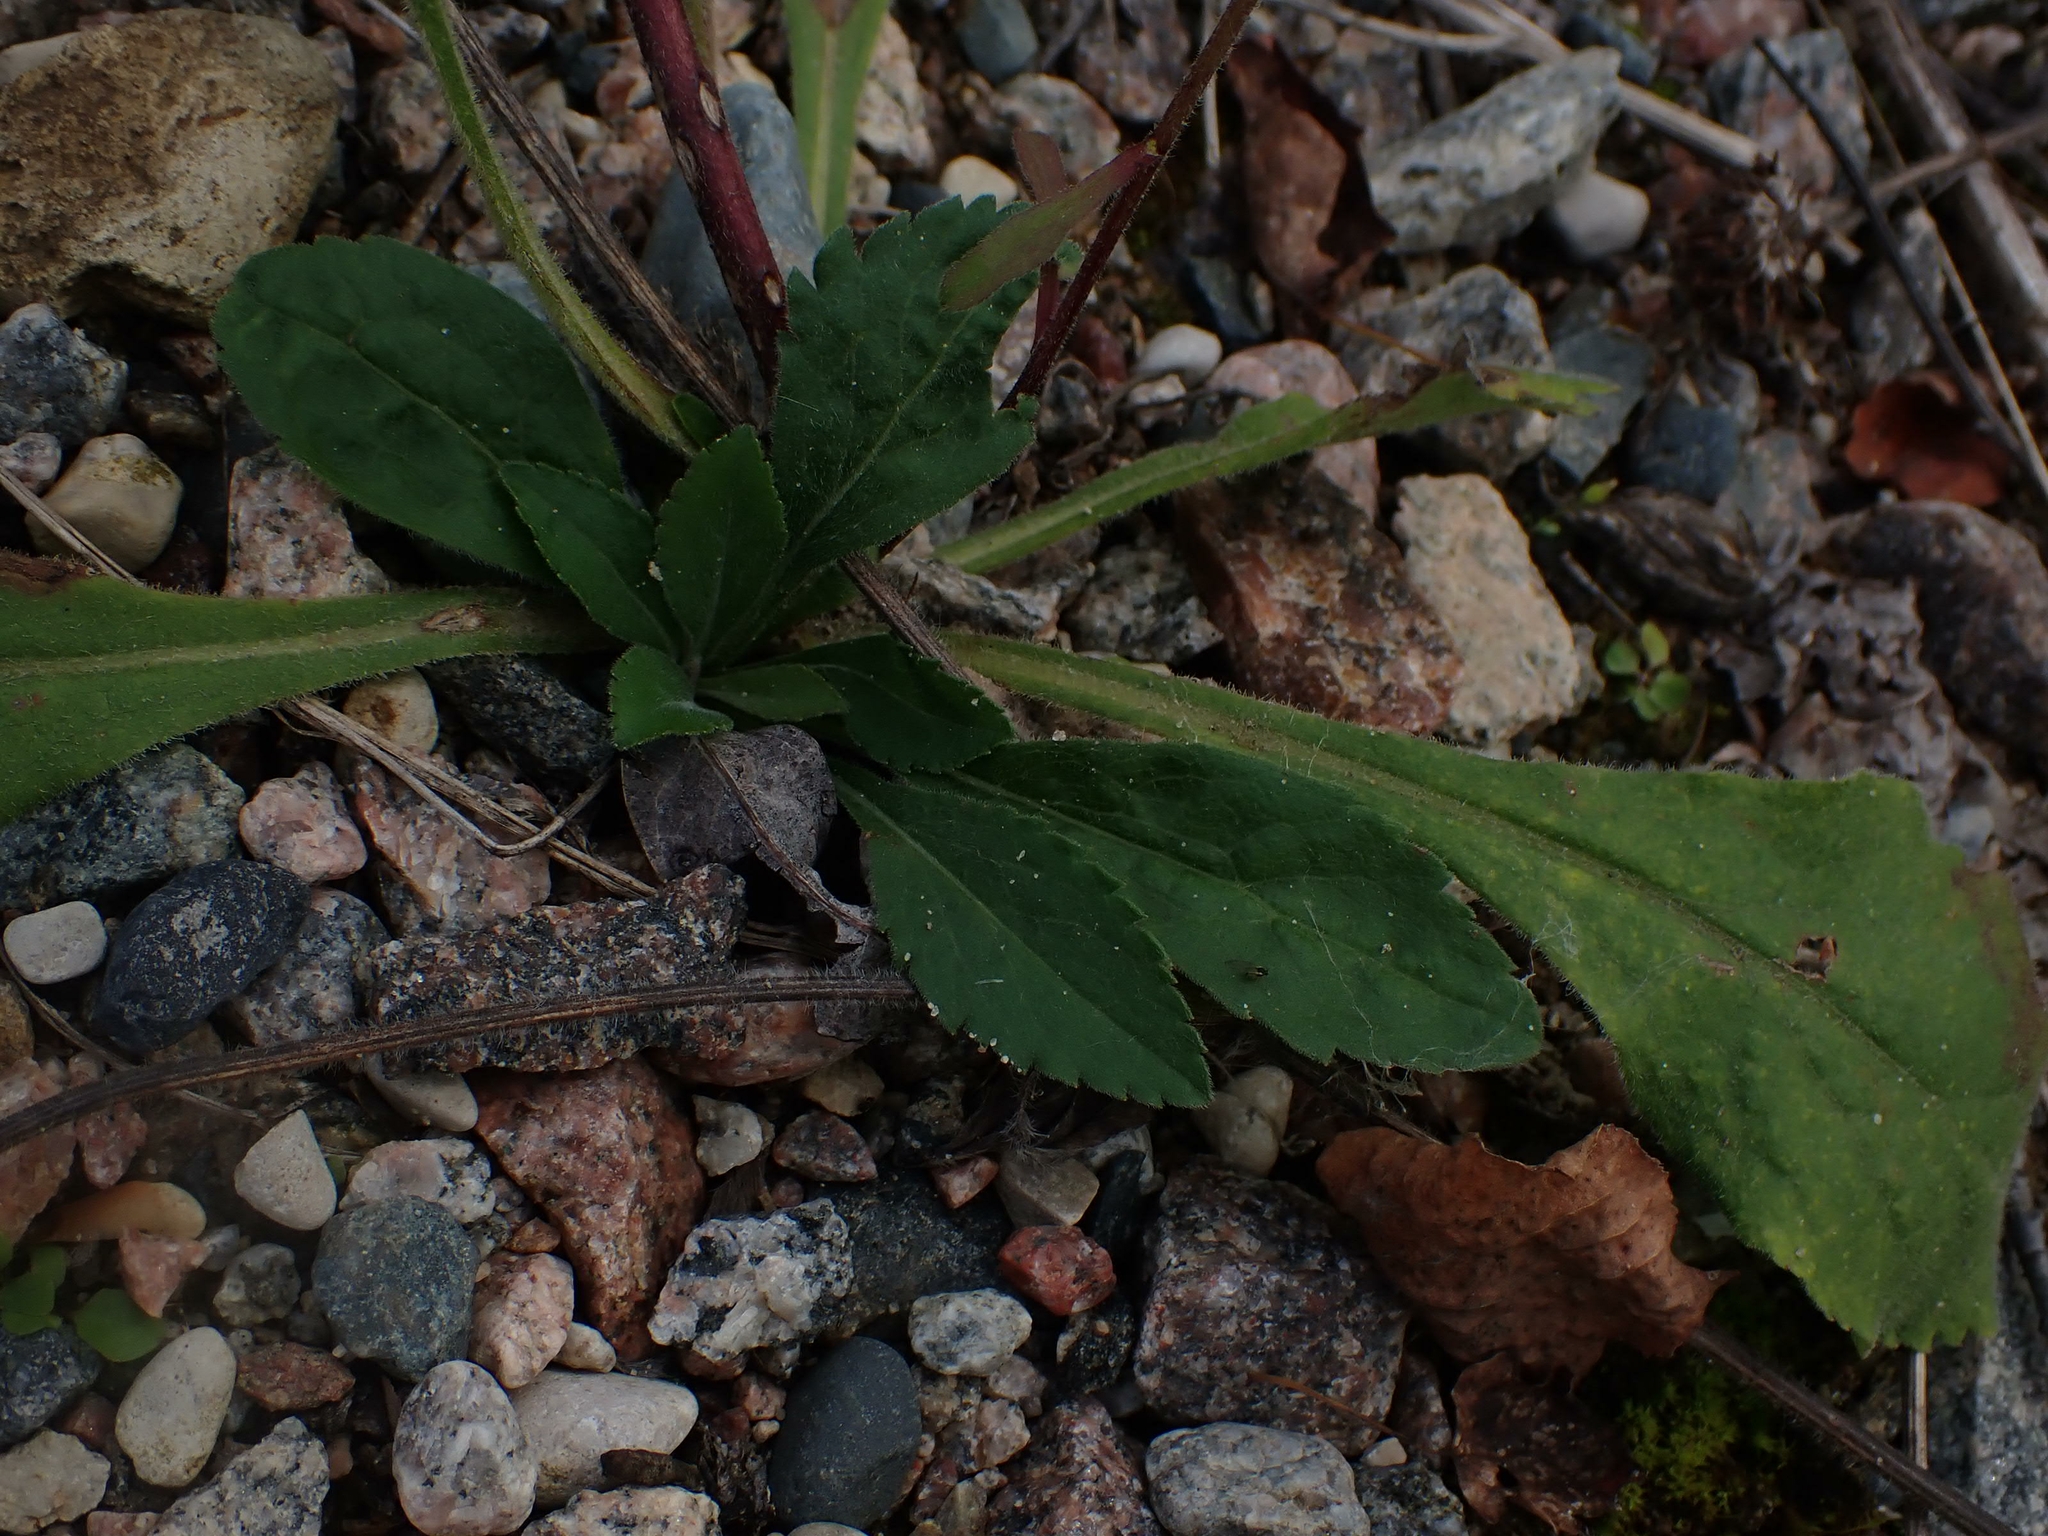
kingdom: Plantae
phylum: Tracheophyta
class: Magnoliopsida
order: Asterales
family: Asteraceae
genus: Solidago
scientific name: Solidago hispida
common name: Hairy goldenrod
